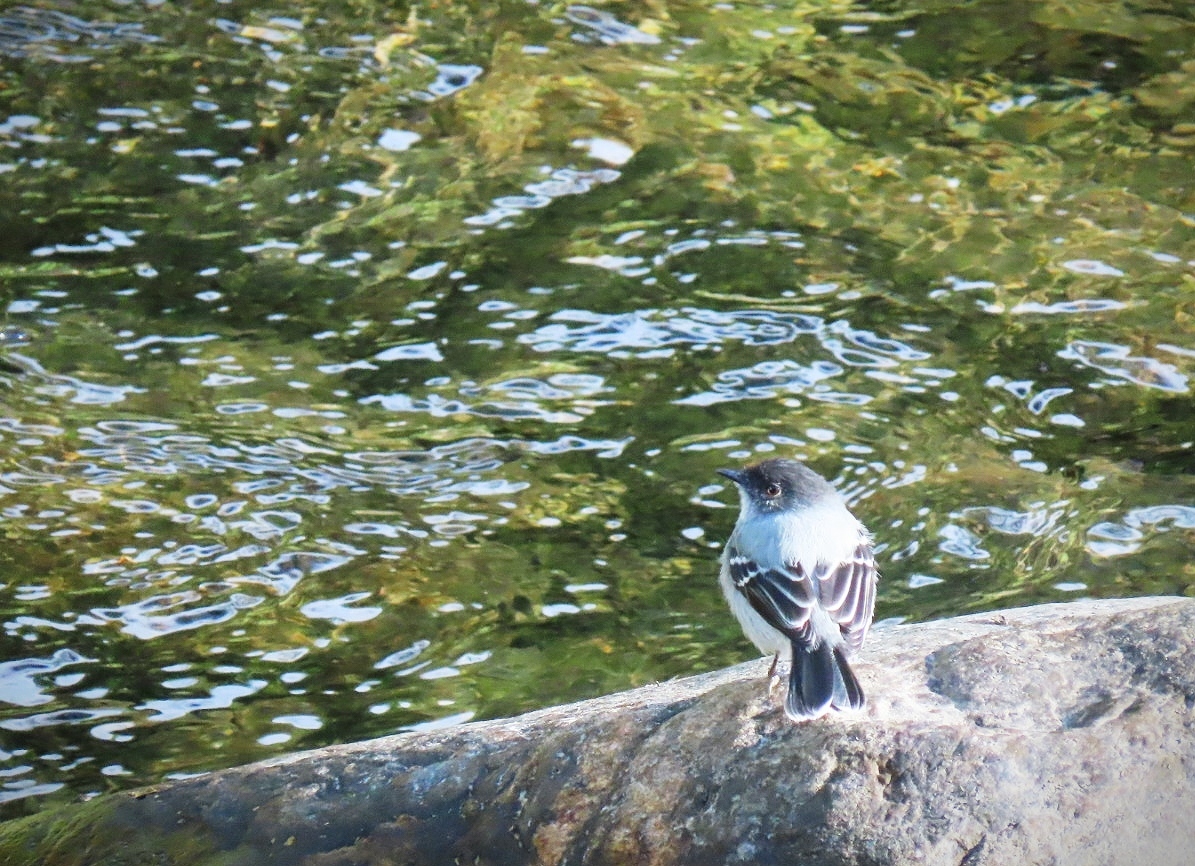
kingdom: Animalia
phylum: Chordata
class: Aves
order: Passeriformes
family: Tyrannidae
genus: Serpophaga
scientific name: Serpophaga cinerea
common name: Torrent tyrannulet
